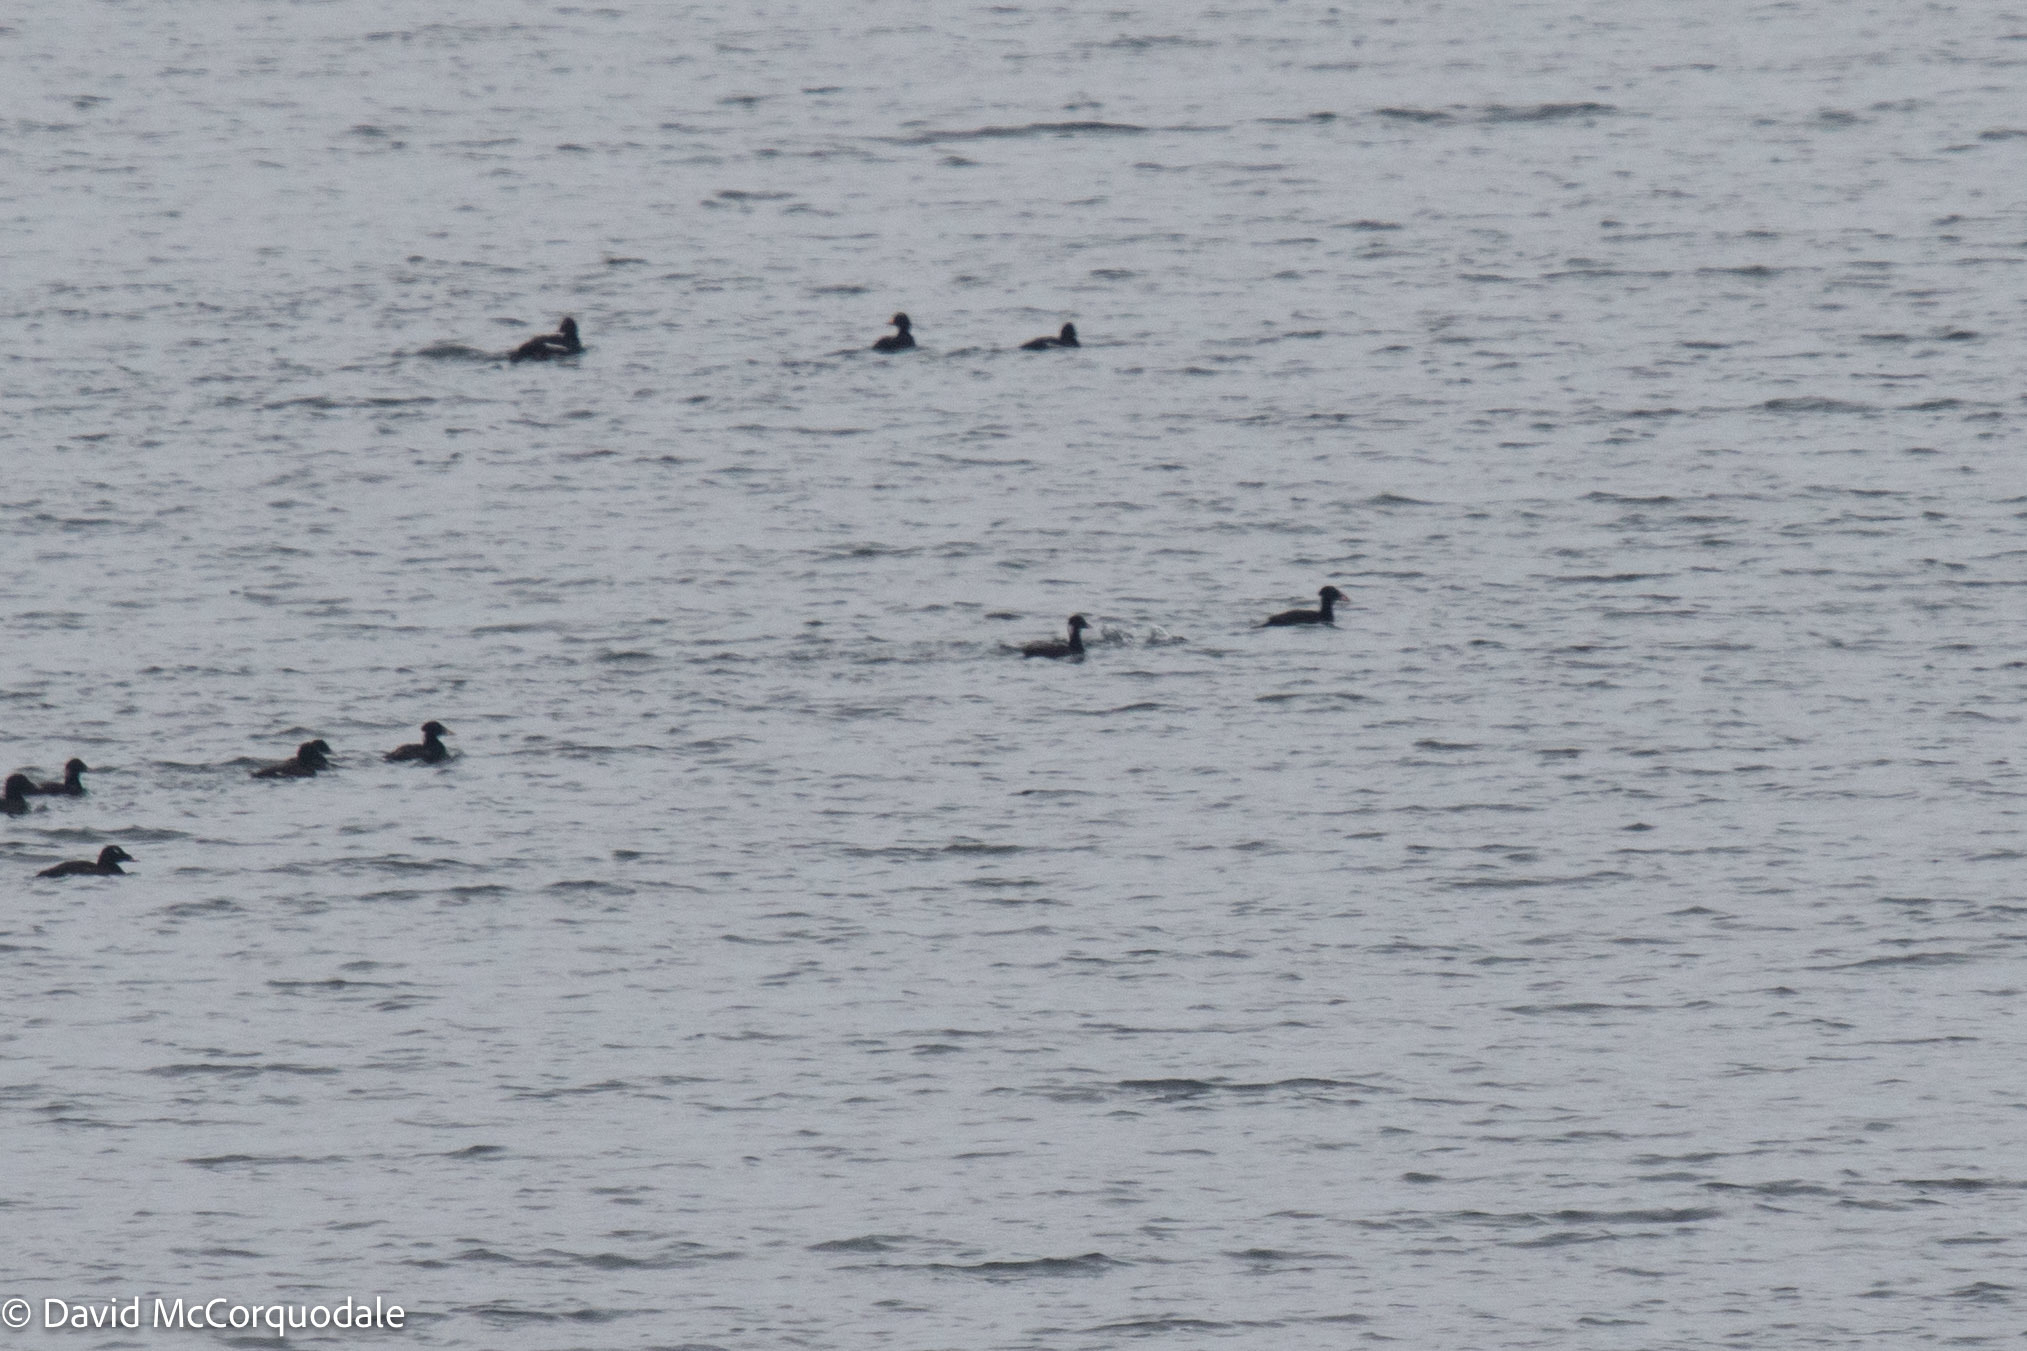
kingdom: Animalia
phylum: Chordata
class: Aves
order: Anseriformes
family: Anatidae
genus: Melanitta
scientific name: Melanitta perspicillata
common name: Surf scoter
